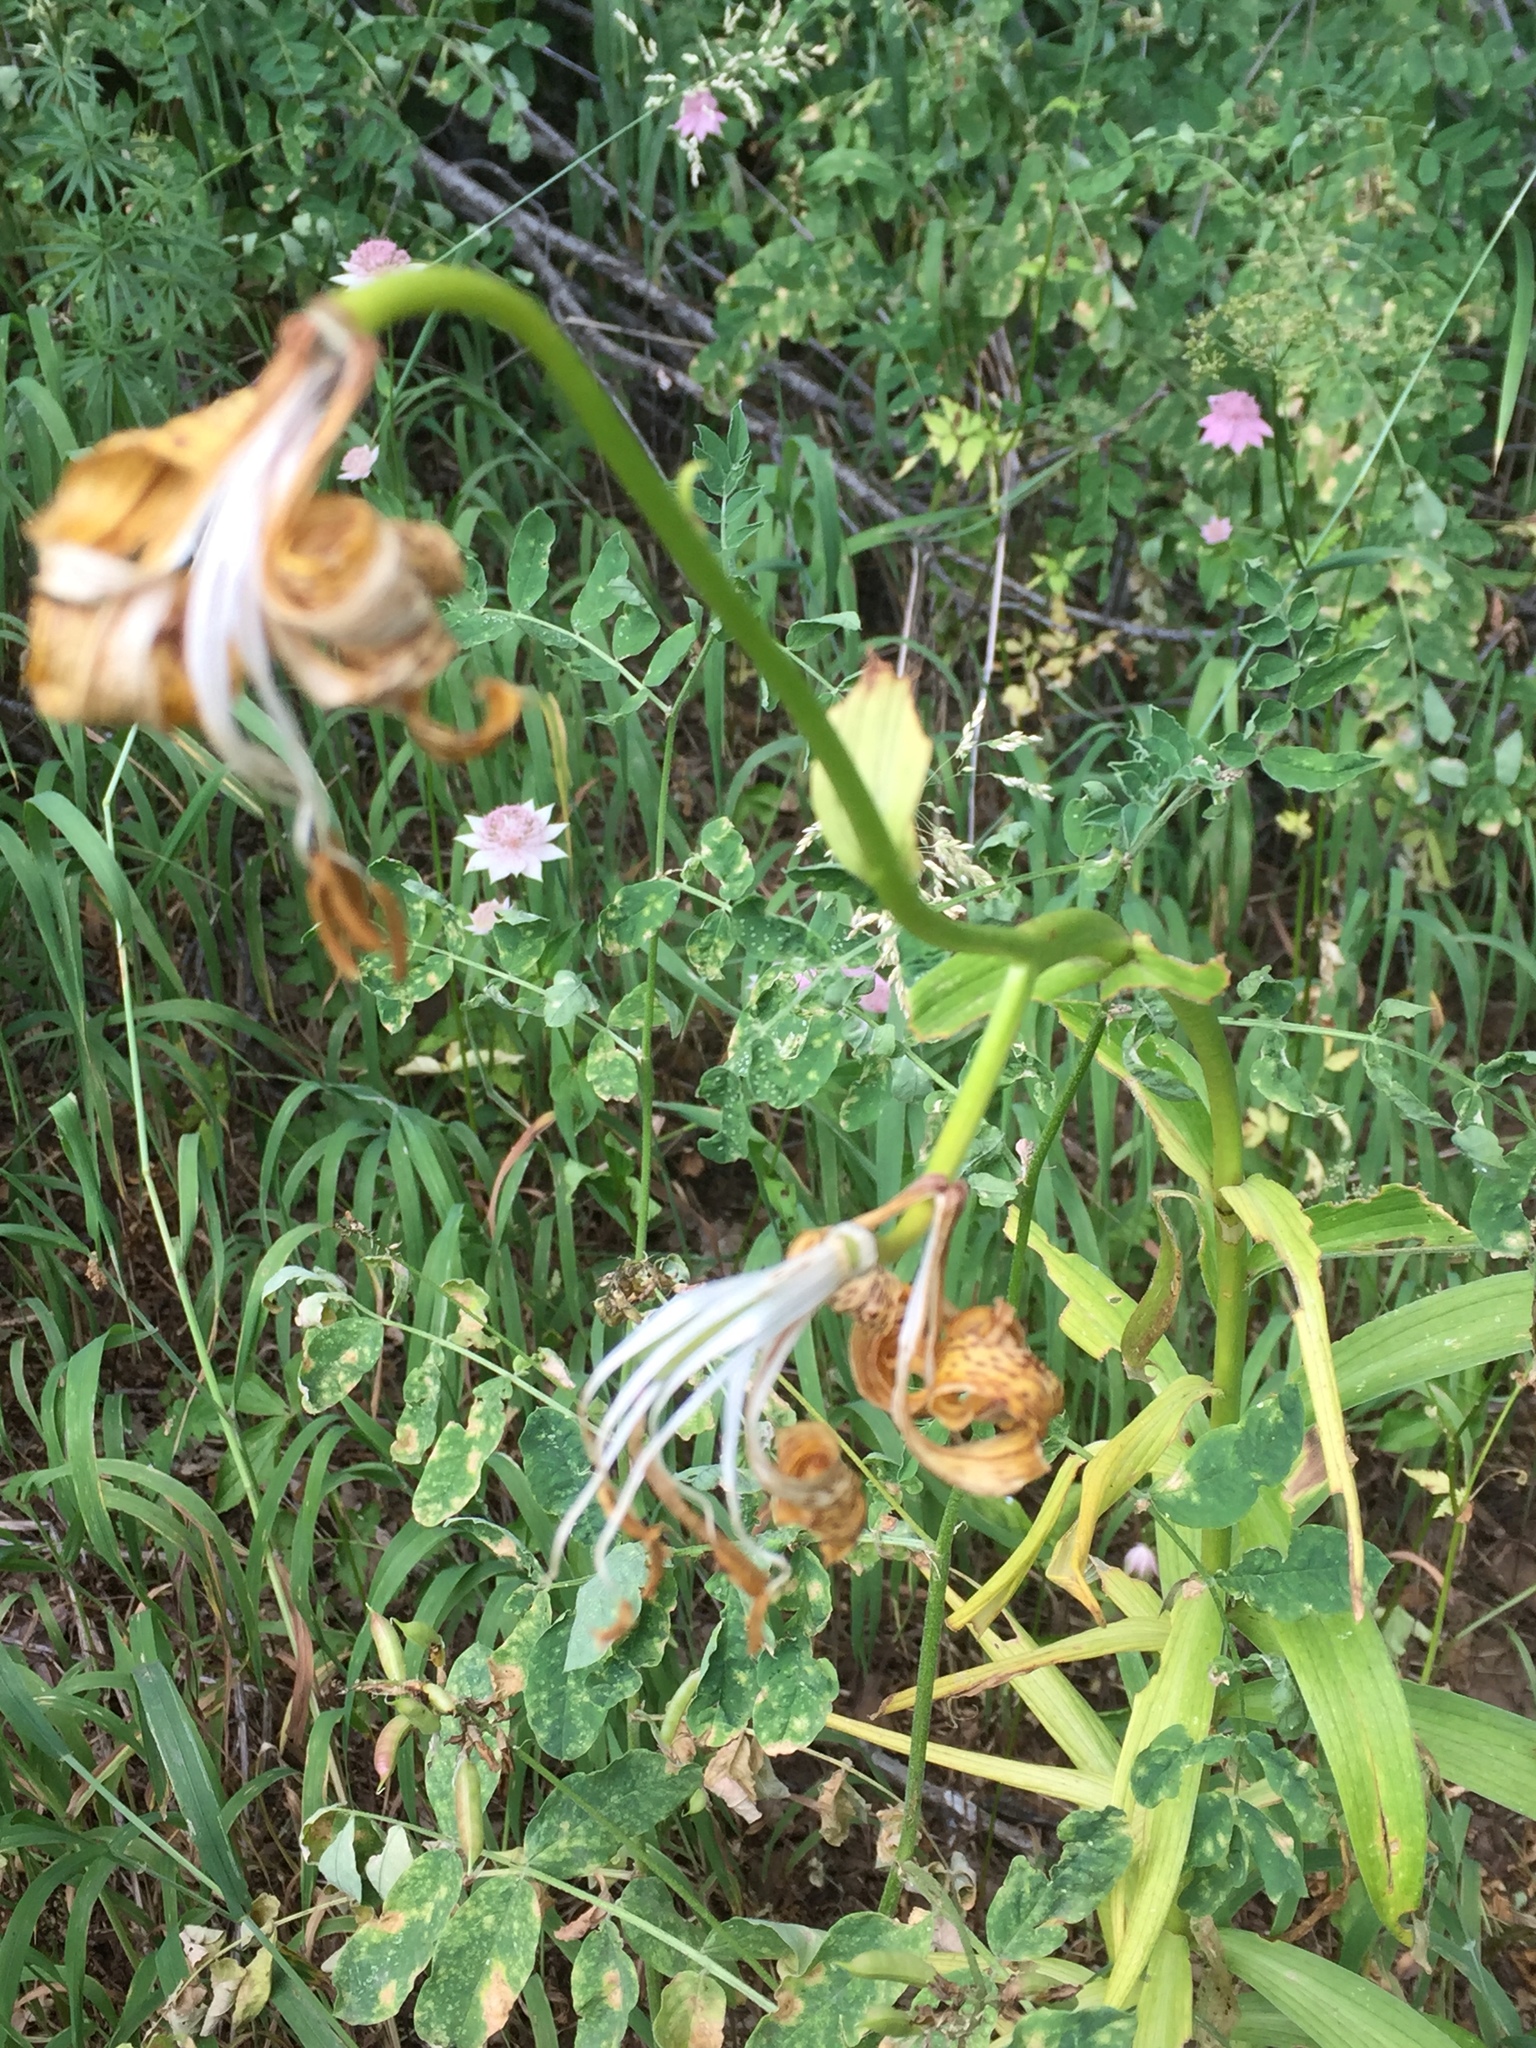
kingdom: Plantae
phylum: Tracheophyta
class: Liliopsida
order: Liliales
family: Liliaceae
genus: Lilium
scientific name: Lilium armenum
